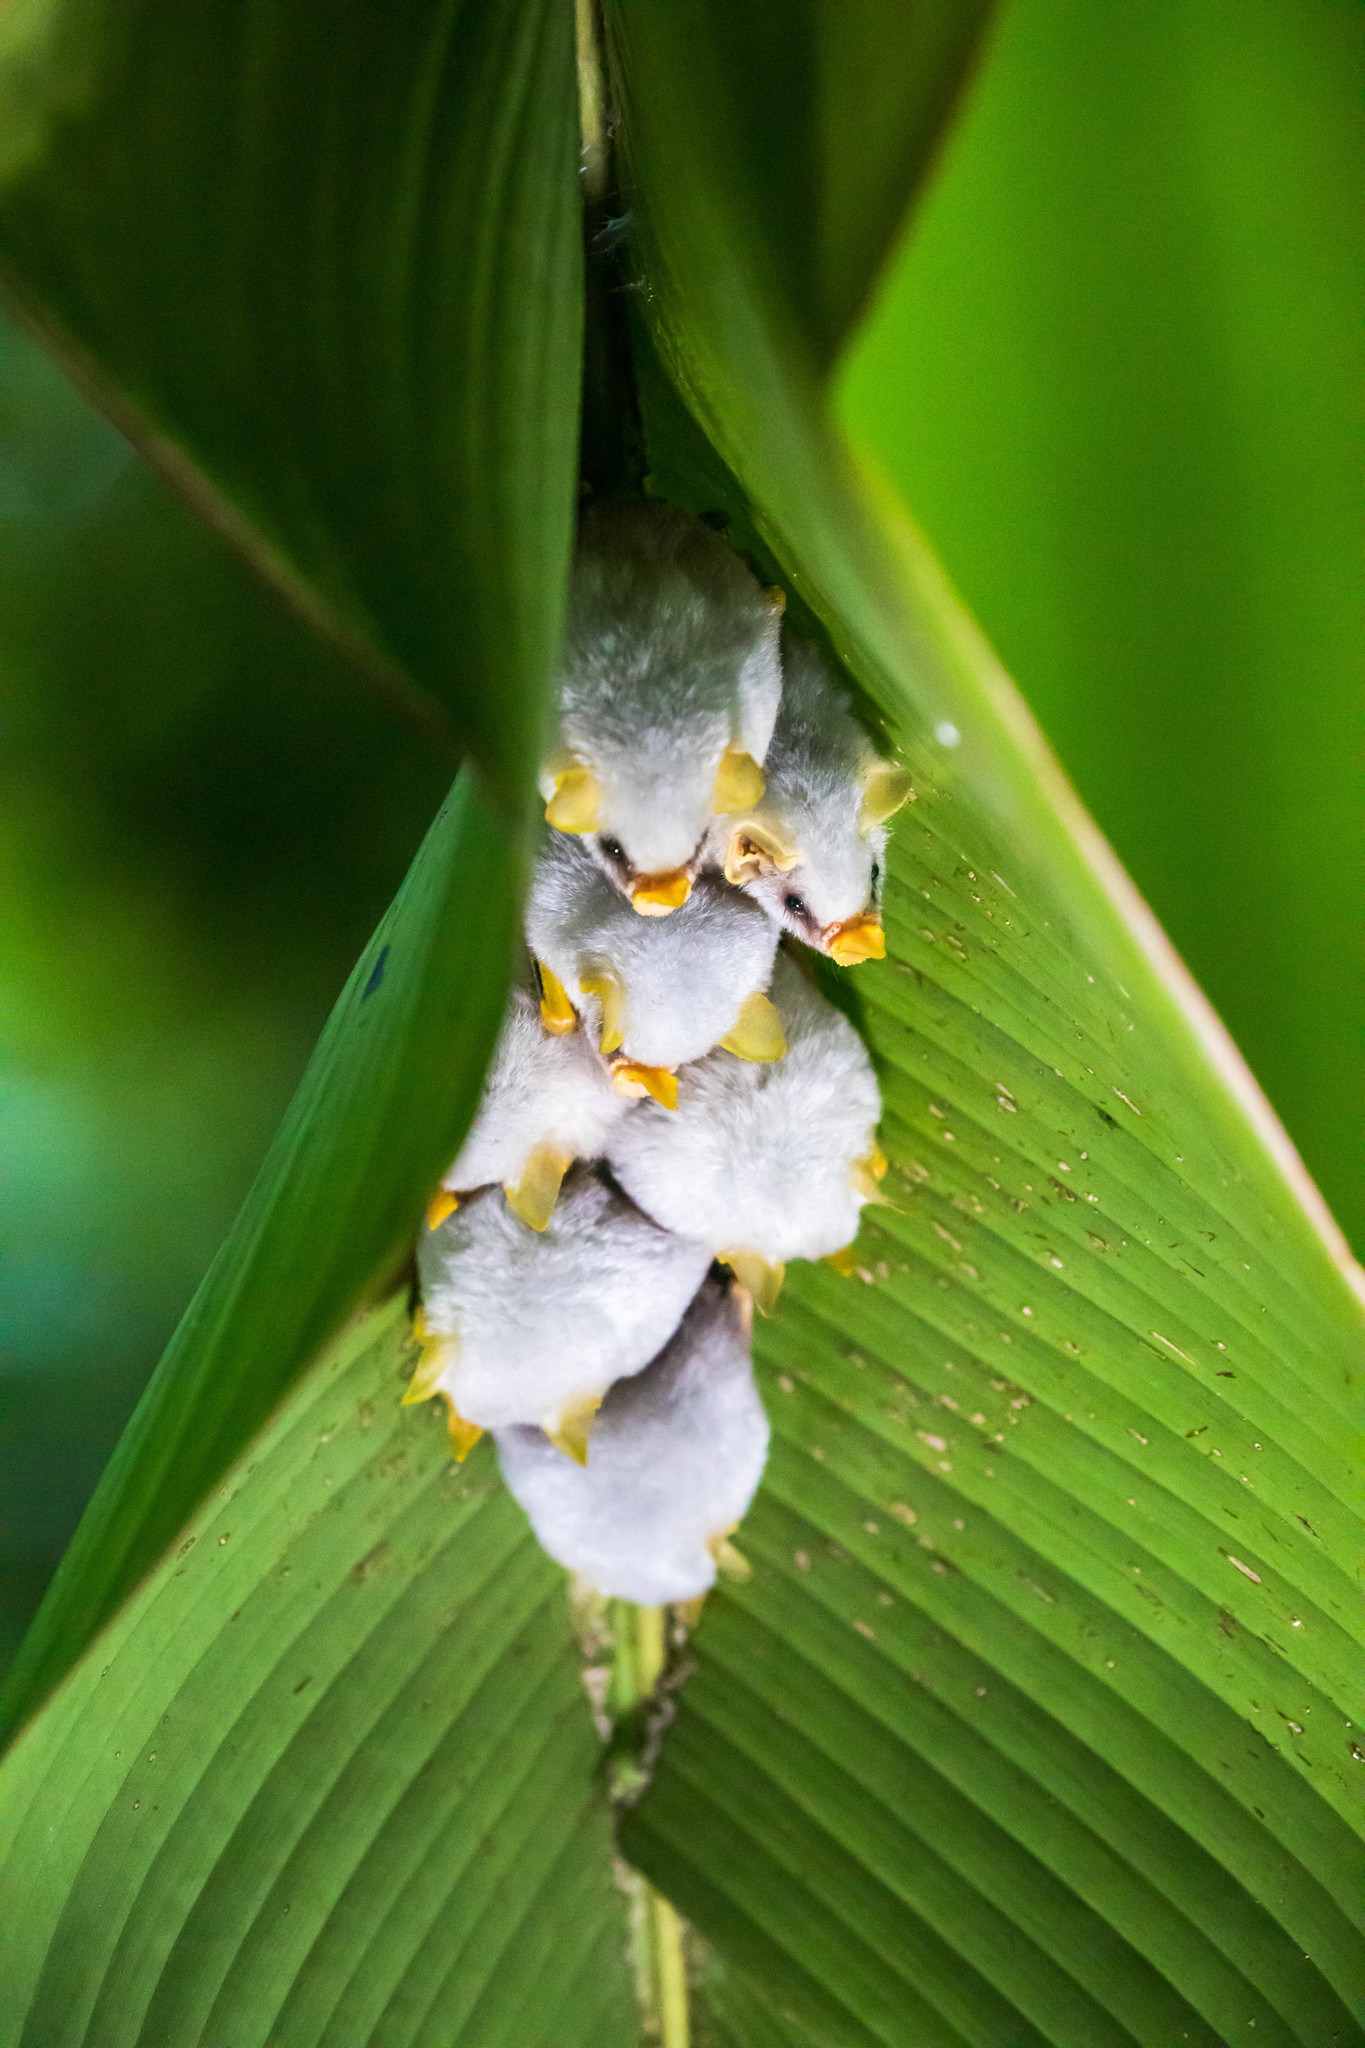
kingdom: Animalia
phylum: Chordata
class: Mammalia
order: Chiroptera
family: Phyllostomidae
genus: Ectophylla
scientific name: Ectophylla alba
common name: Honduran white bat
